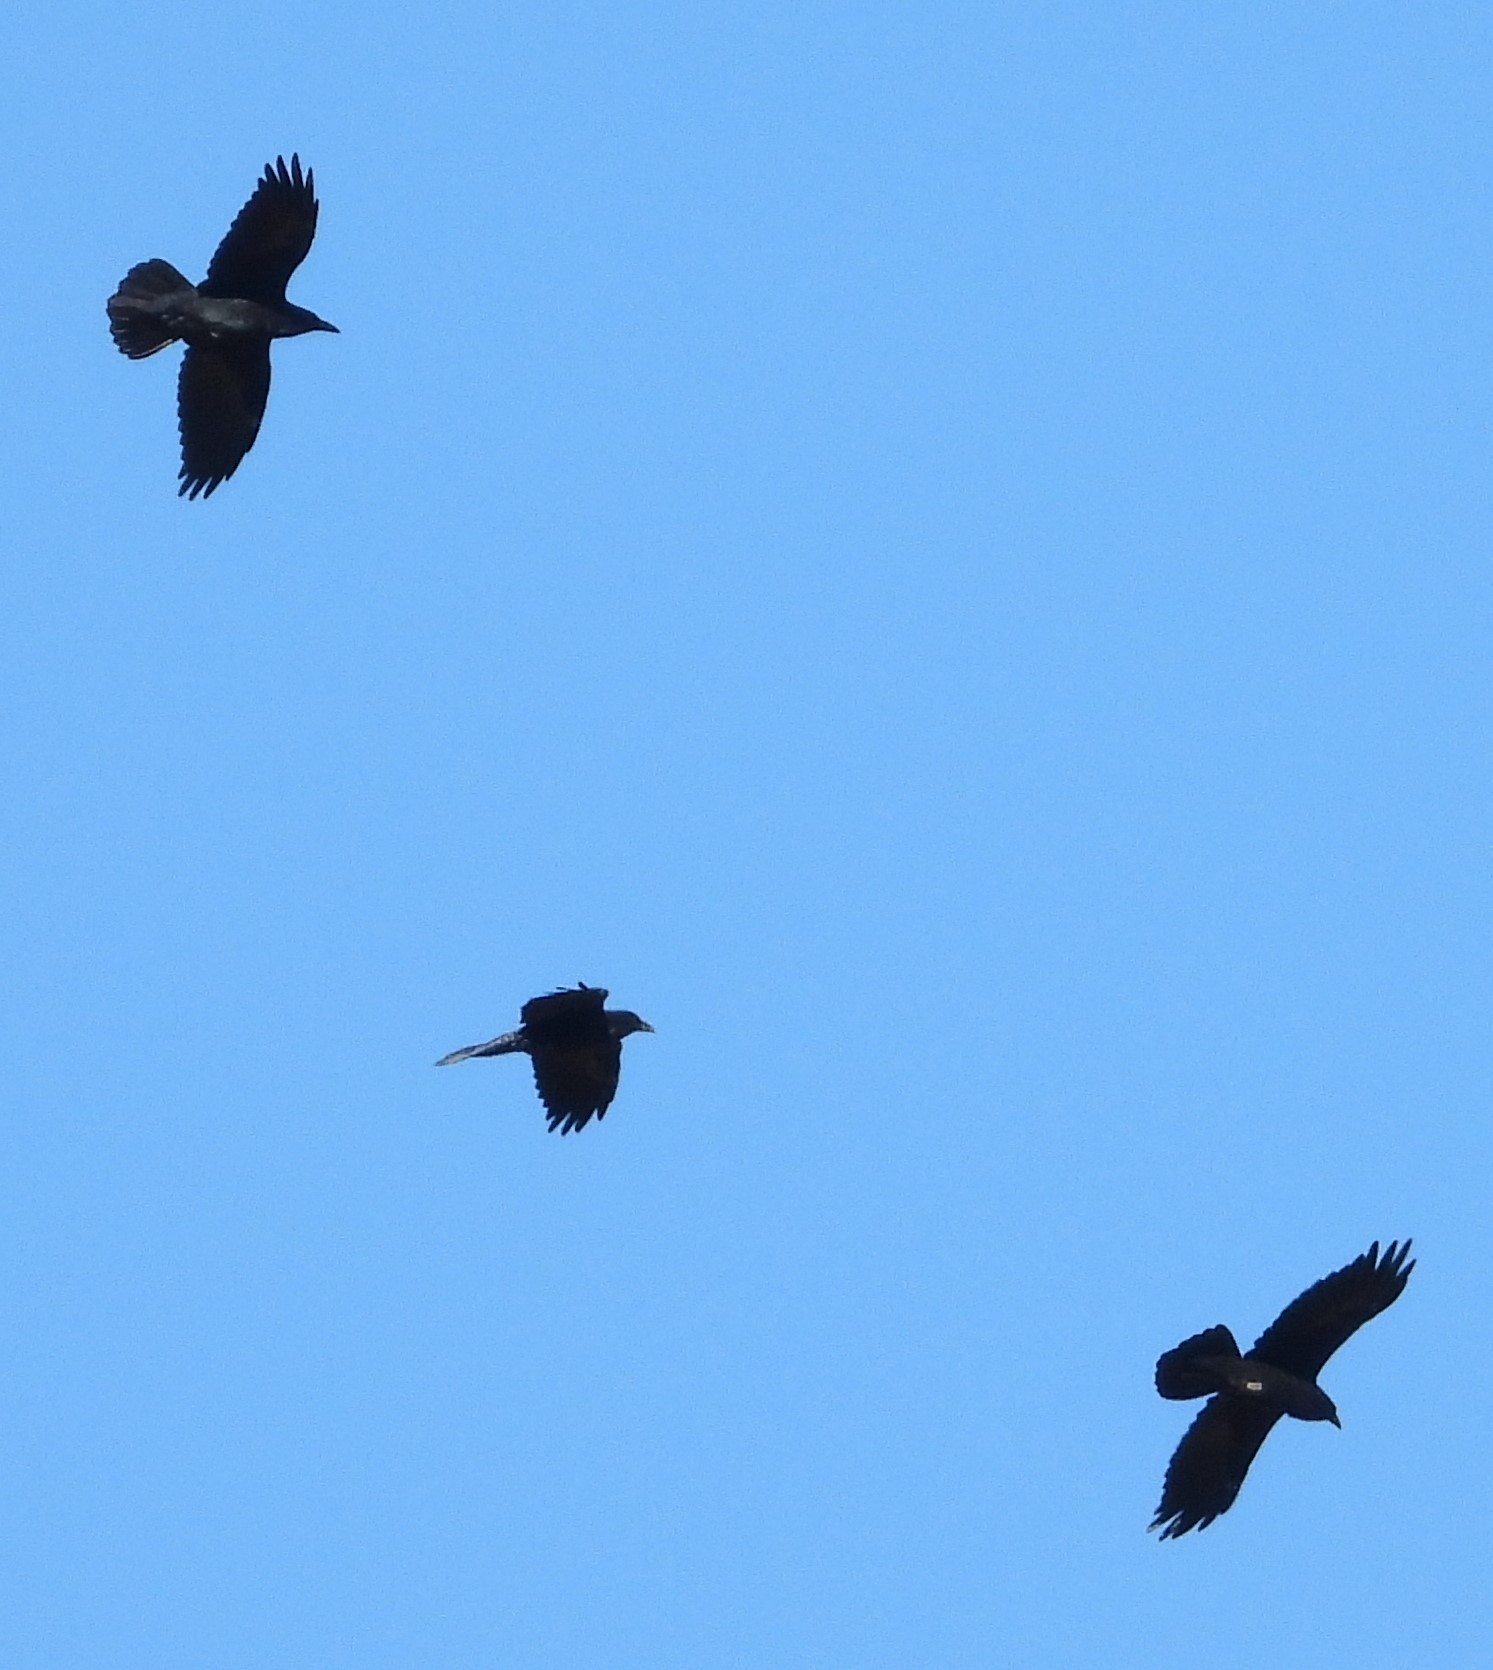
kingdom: Animalia
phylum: Chordata
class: Aves
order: Passeriformes
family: Corvidae
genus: Corvus
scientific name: Corvus corax
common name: Common raven
